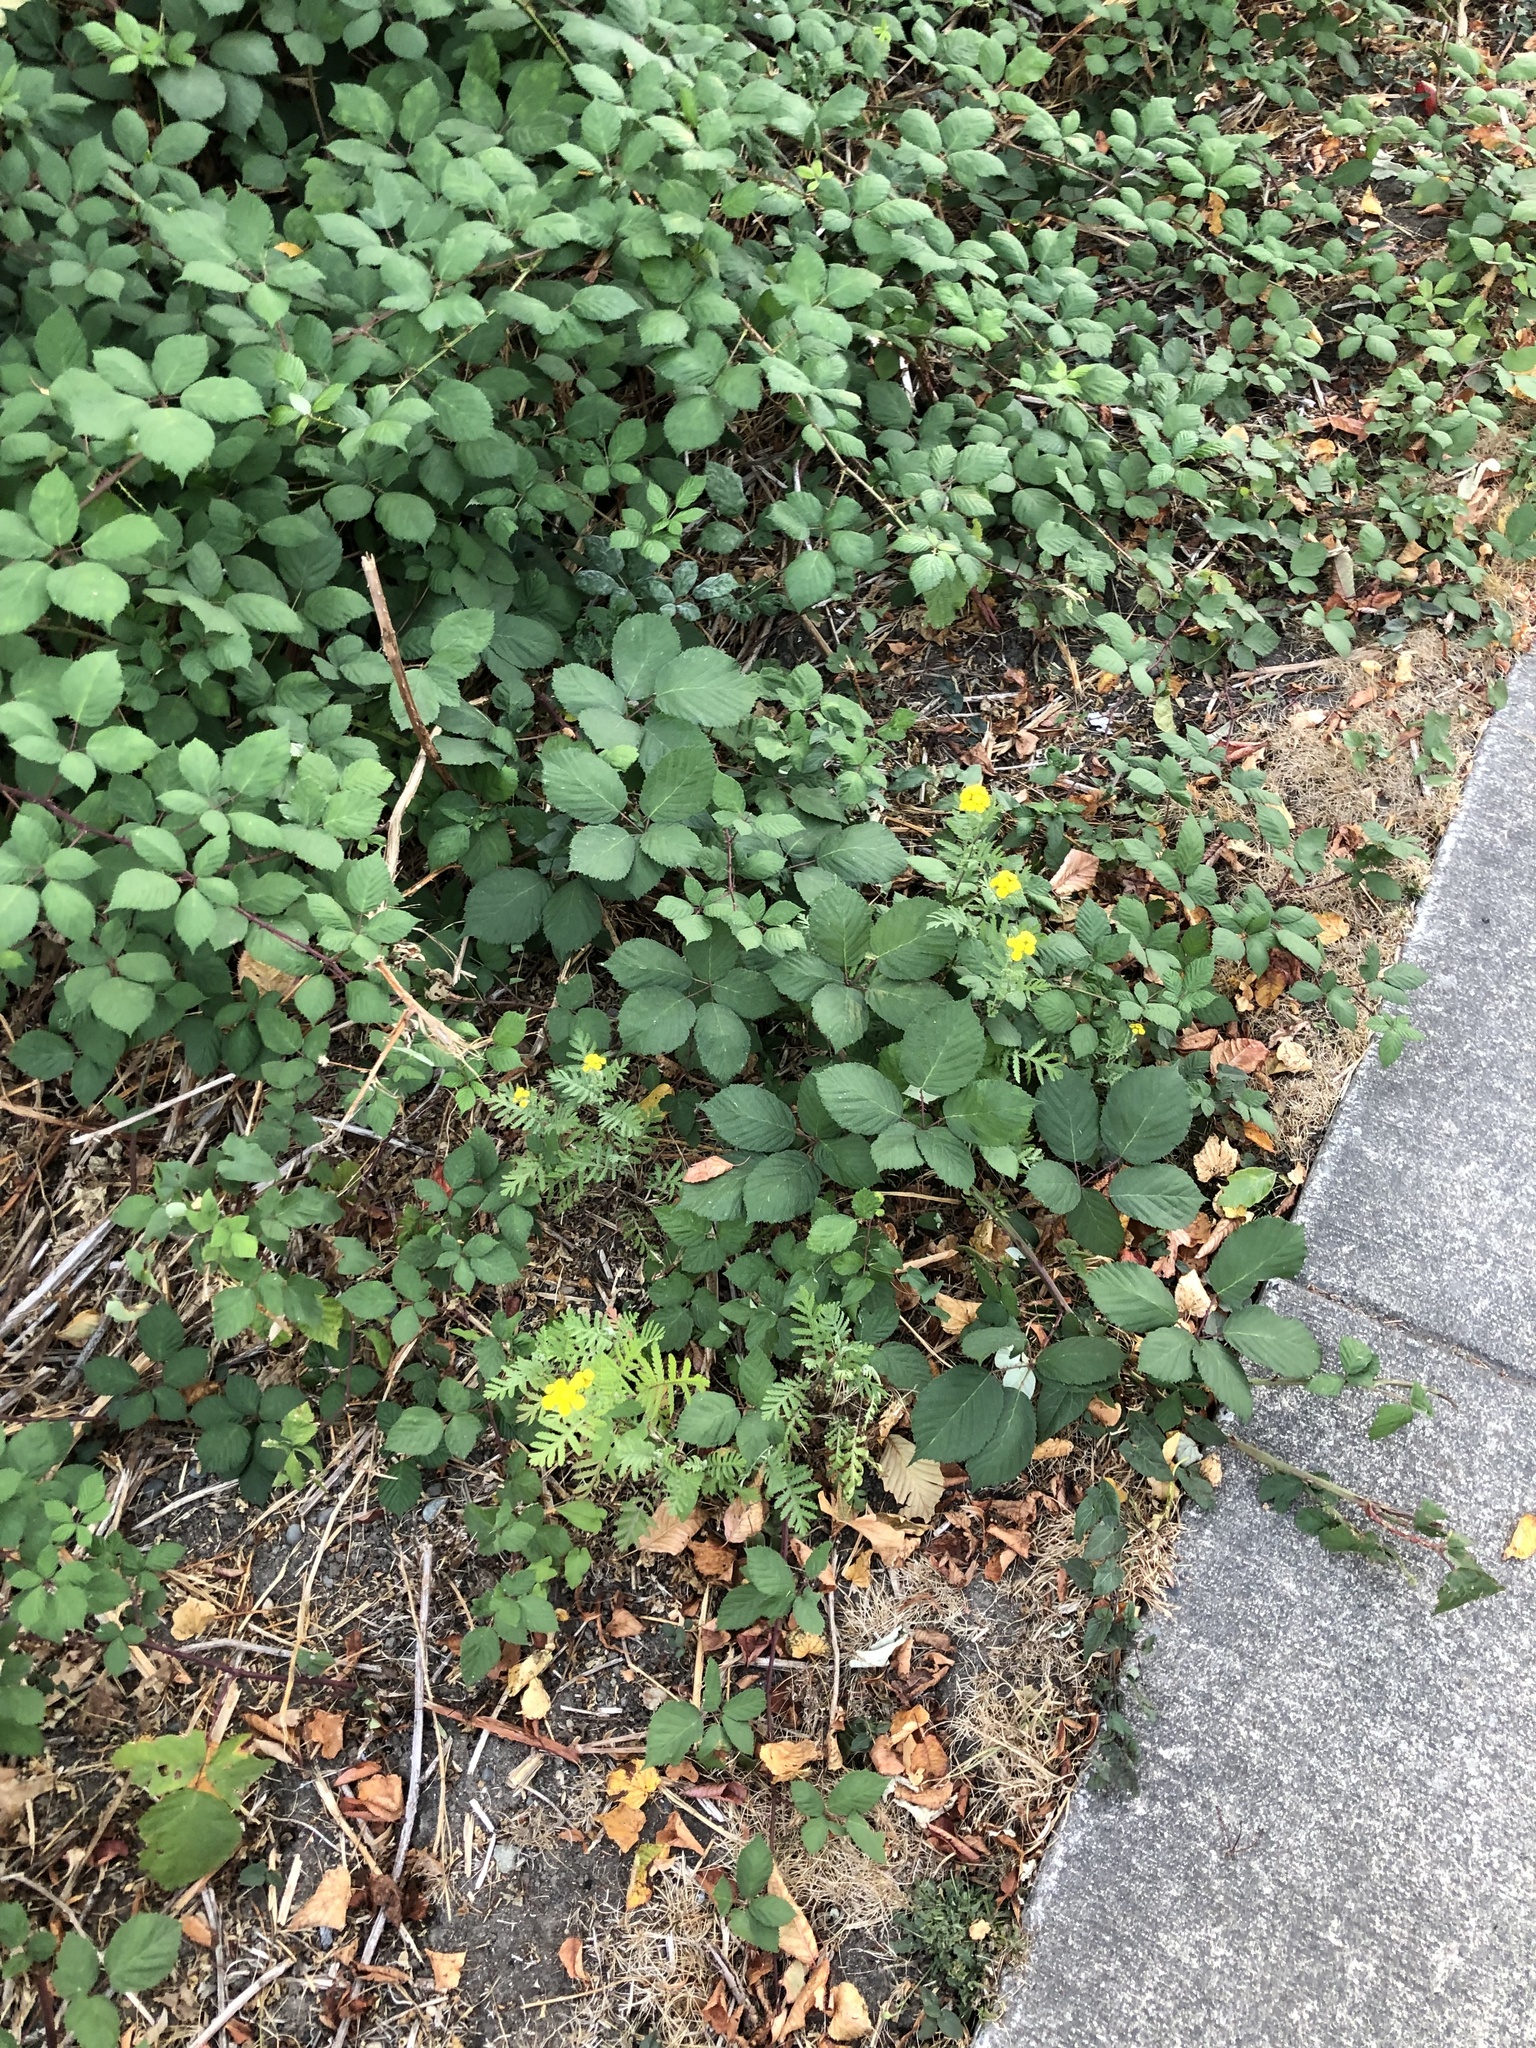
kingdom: Plantae
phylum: Tracheophyta
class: Magnoliopsida
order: Asterales
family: Asteraceae
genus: Tanacetum
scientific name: Tanacetum vulgare
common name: Common tansy
